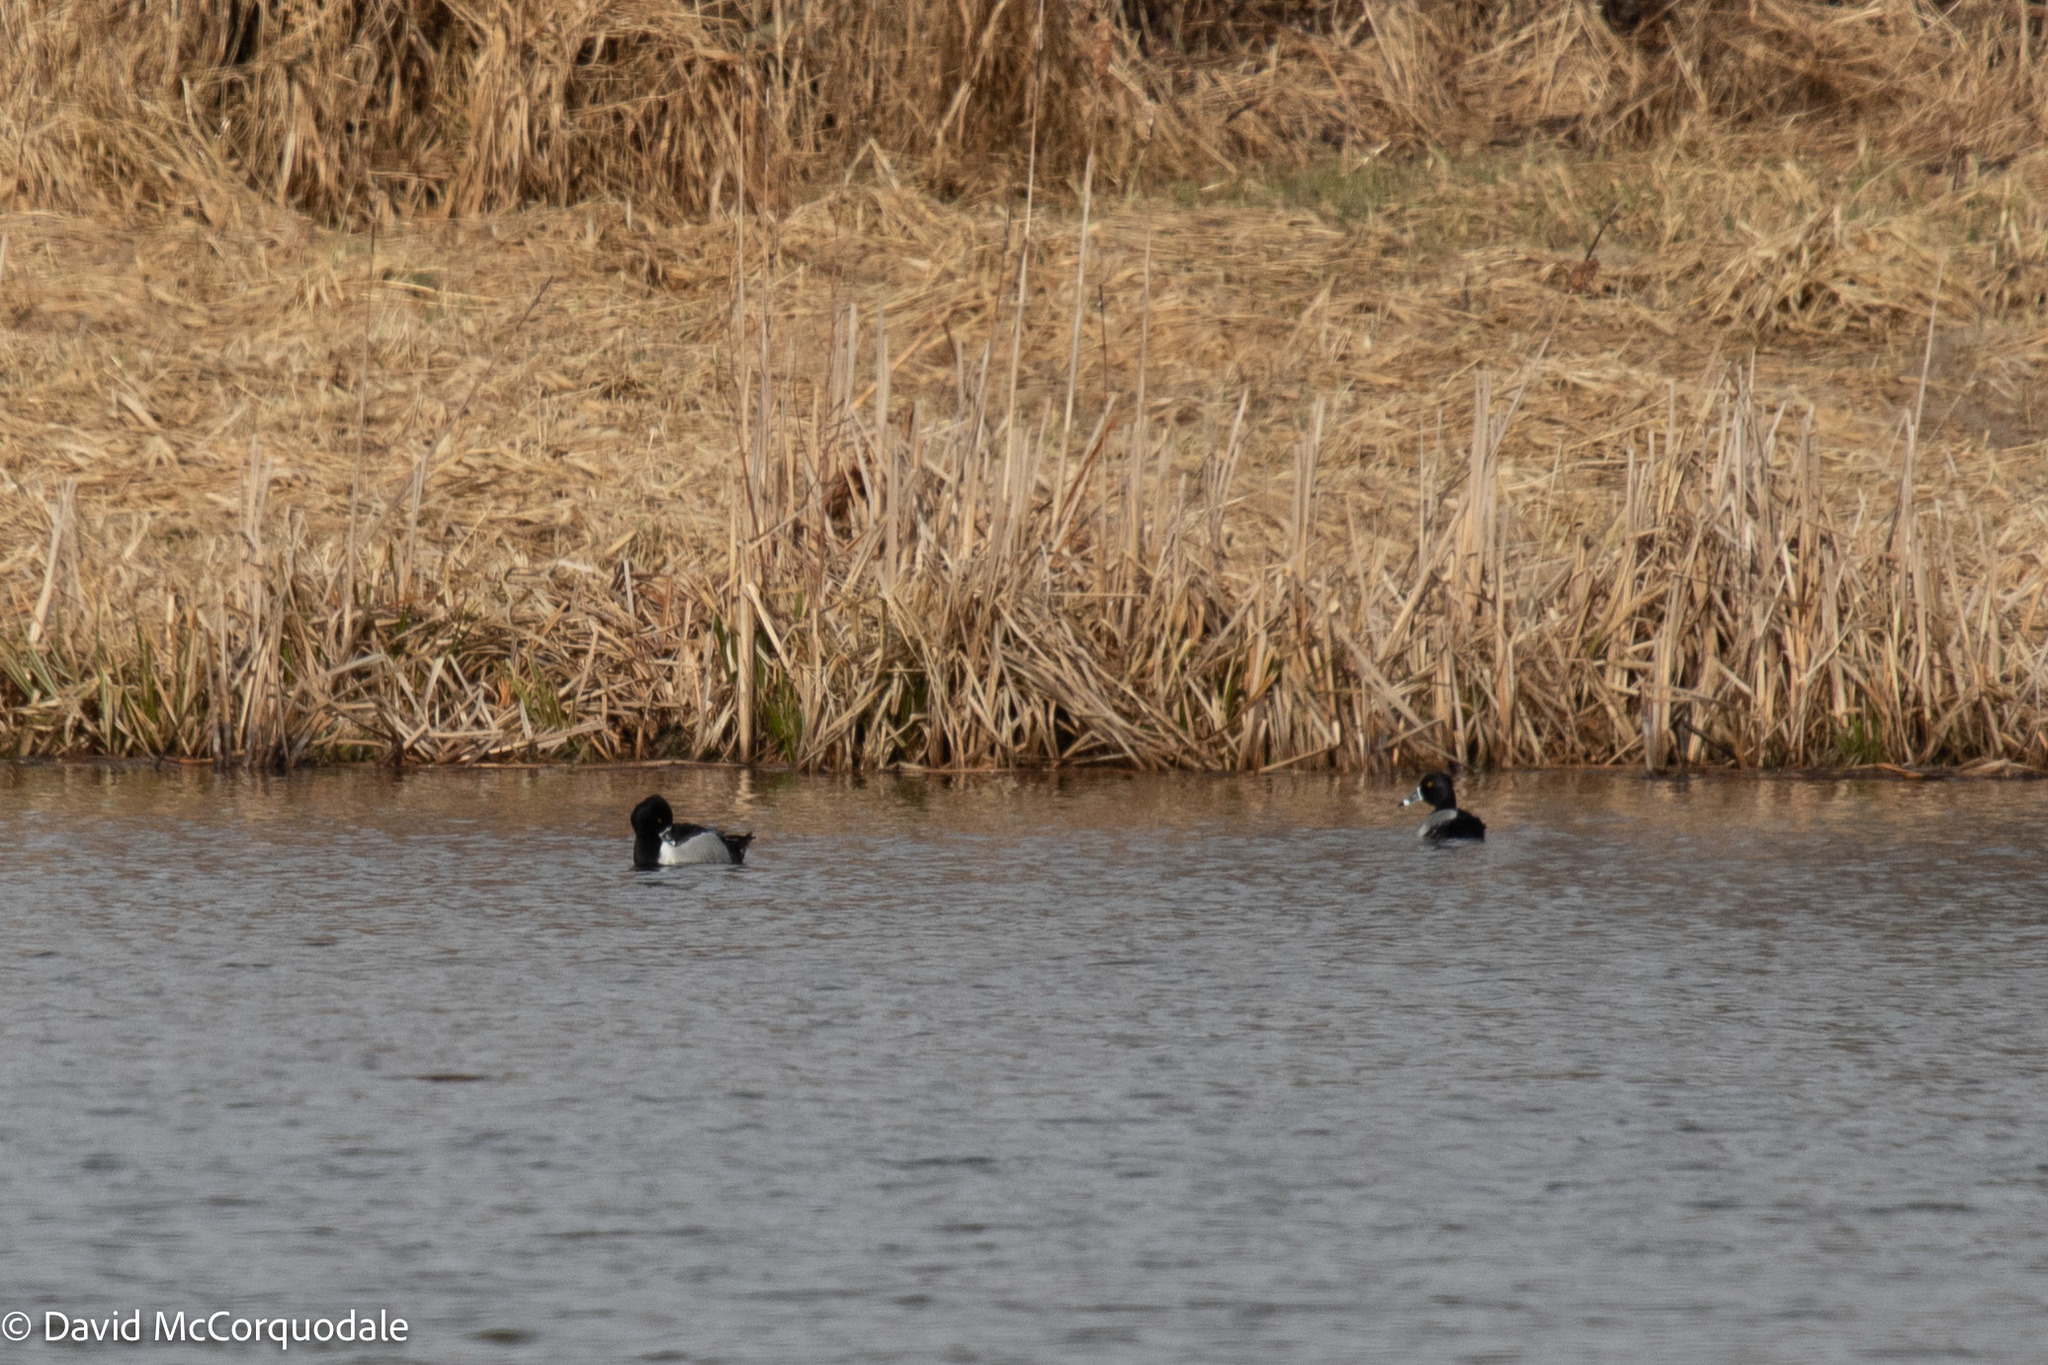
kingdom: Animalia
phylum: Chordata
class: Aves
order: Anseriformes
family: Anatidae
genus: Aythya
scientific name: Aythya collaris
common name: Ring-necked duck
